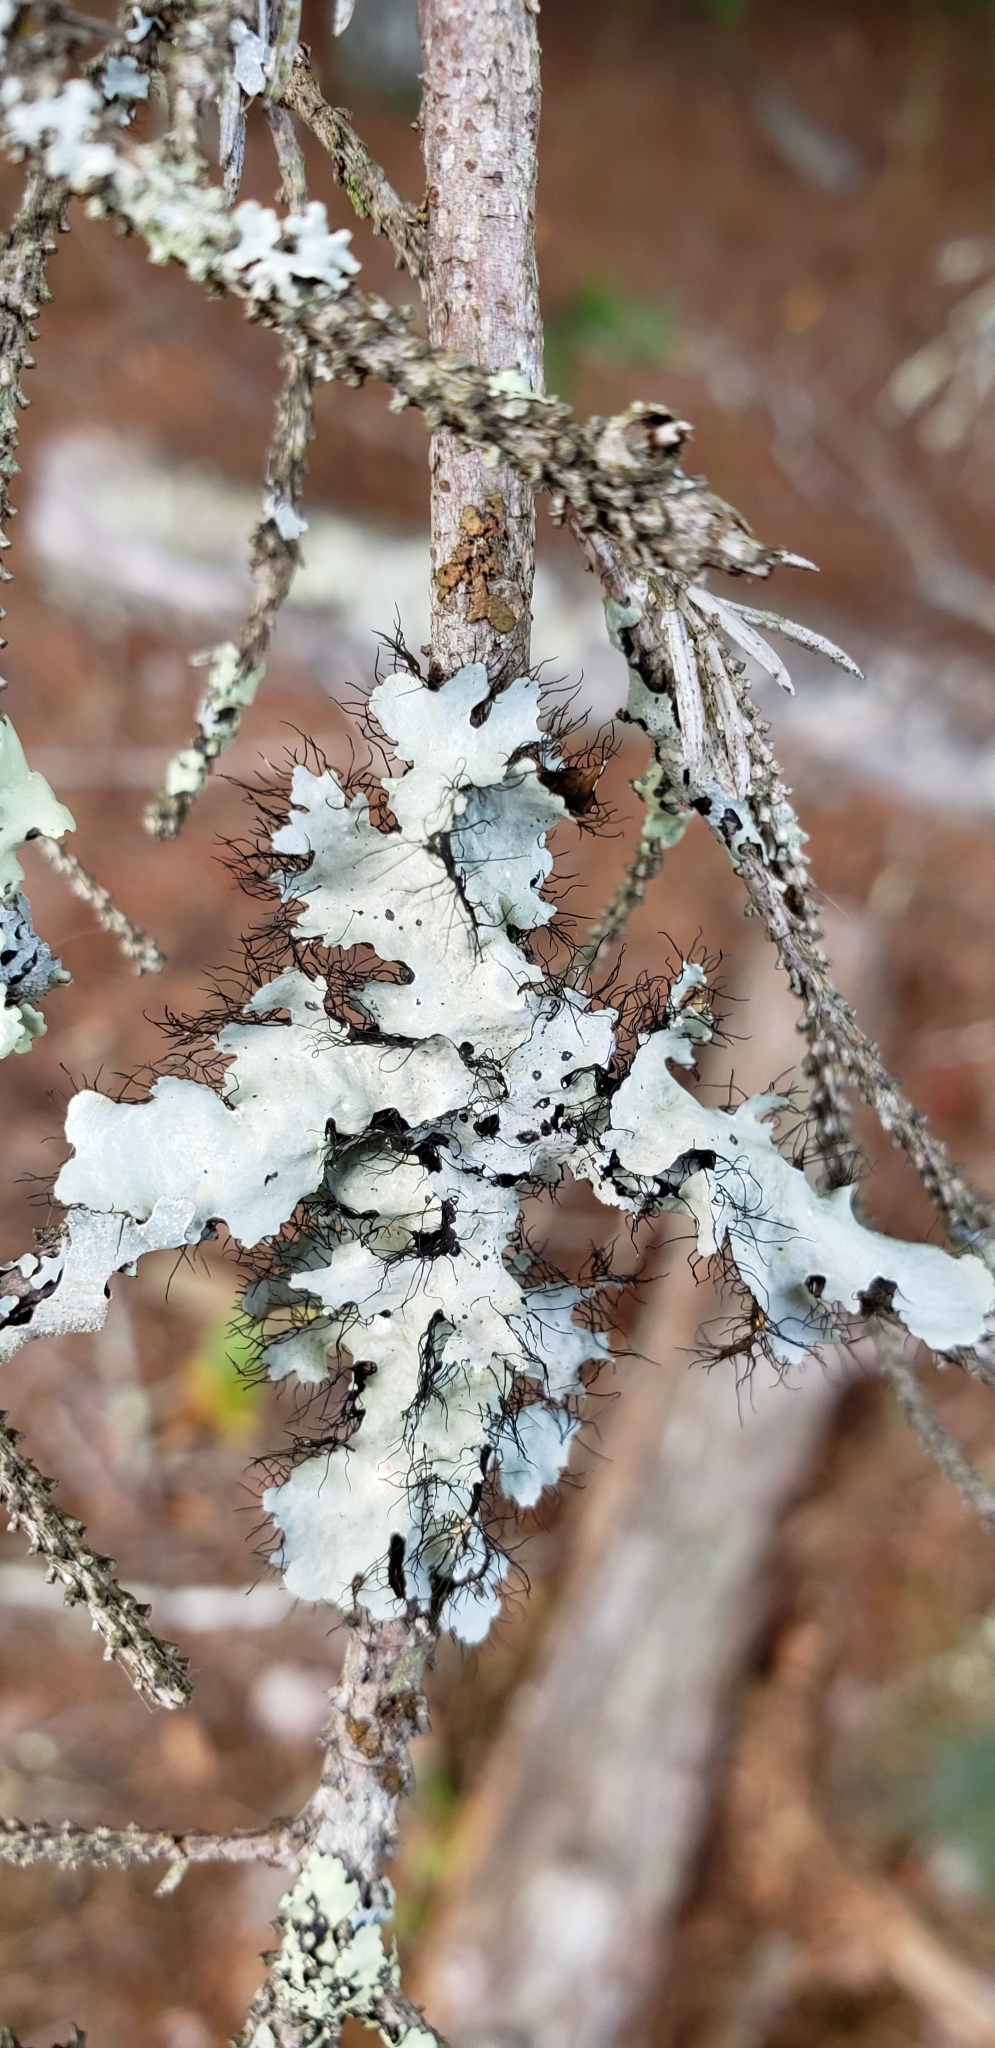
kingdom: Fungi
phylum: Ascomycota
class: Lecanoromycetes
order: Lecanorales
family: Parmeliaceae
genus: Parmelia
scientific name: Parmelia sulcata
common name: Netted shield lichen
